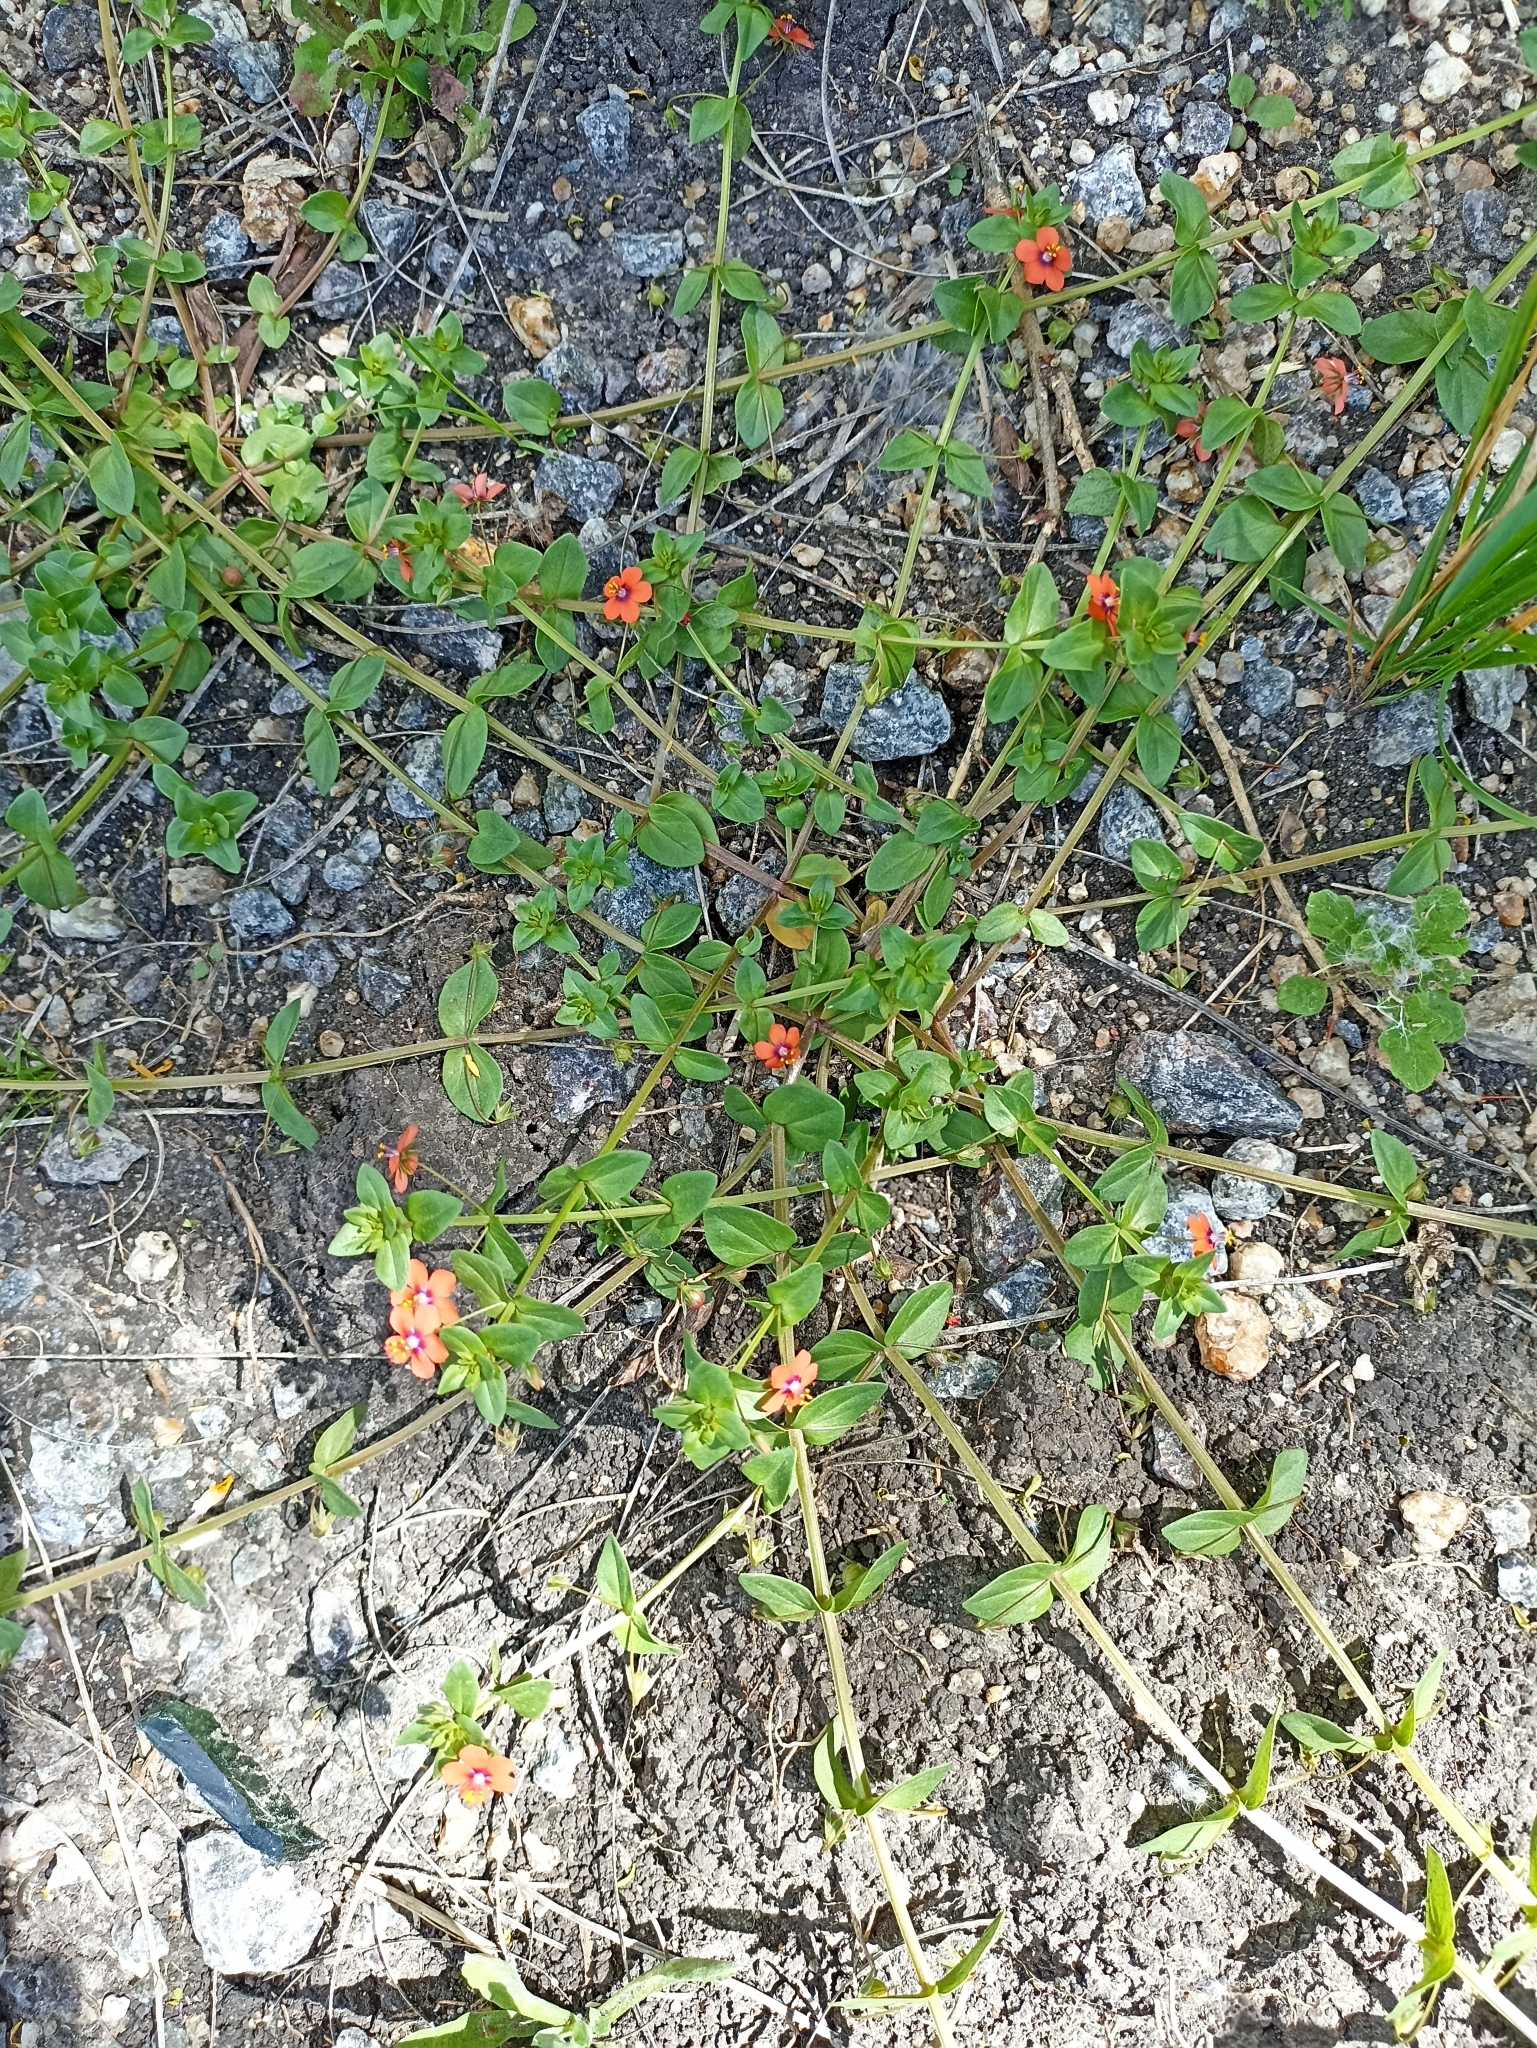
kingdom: Plantae
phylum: Tracheophyta
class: Magnoliopsida
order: Ericales
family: Primulaceae
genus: Lysimachia
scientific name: Lysimachia arvensis
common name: Scarlet pimpernel
